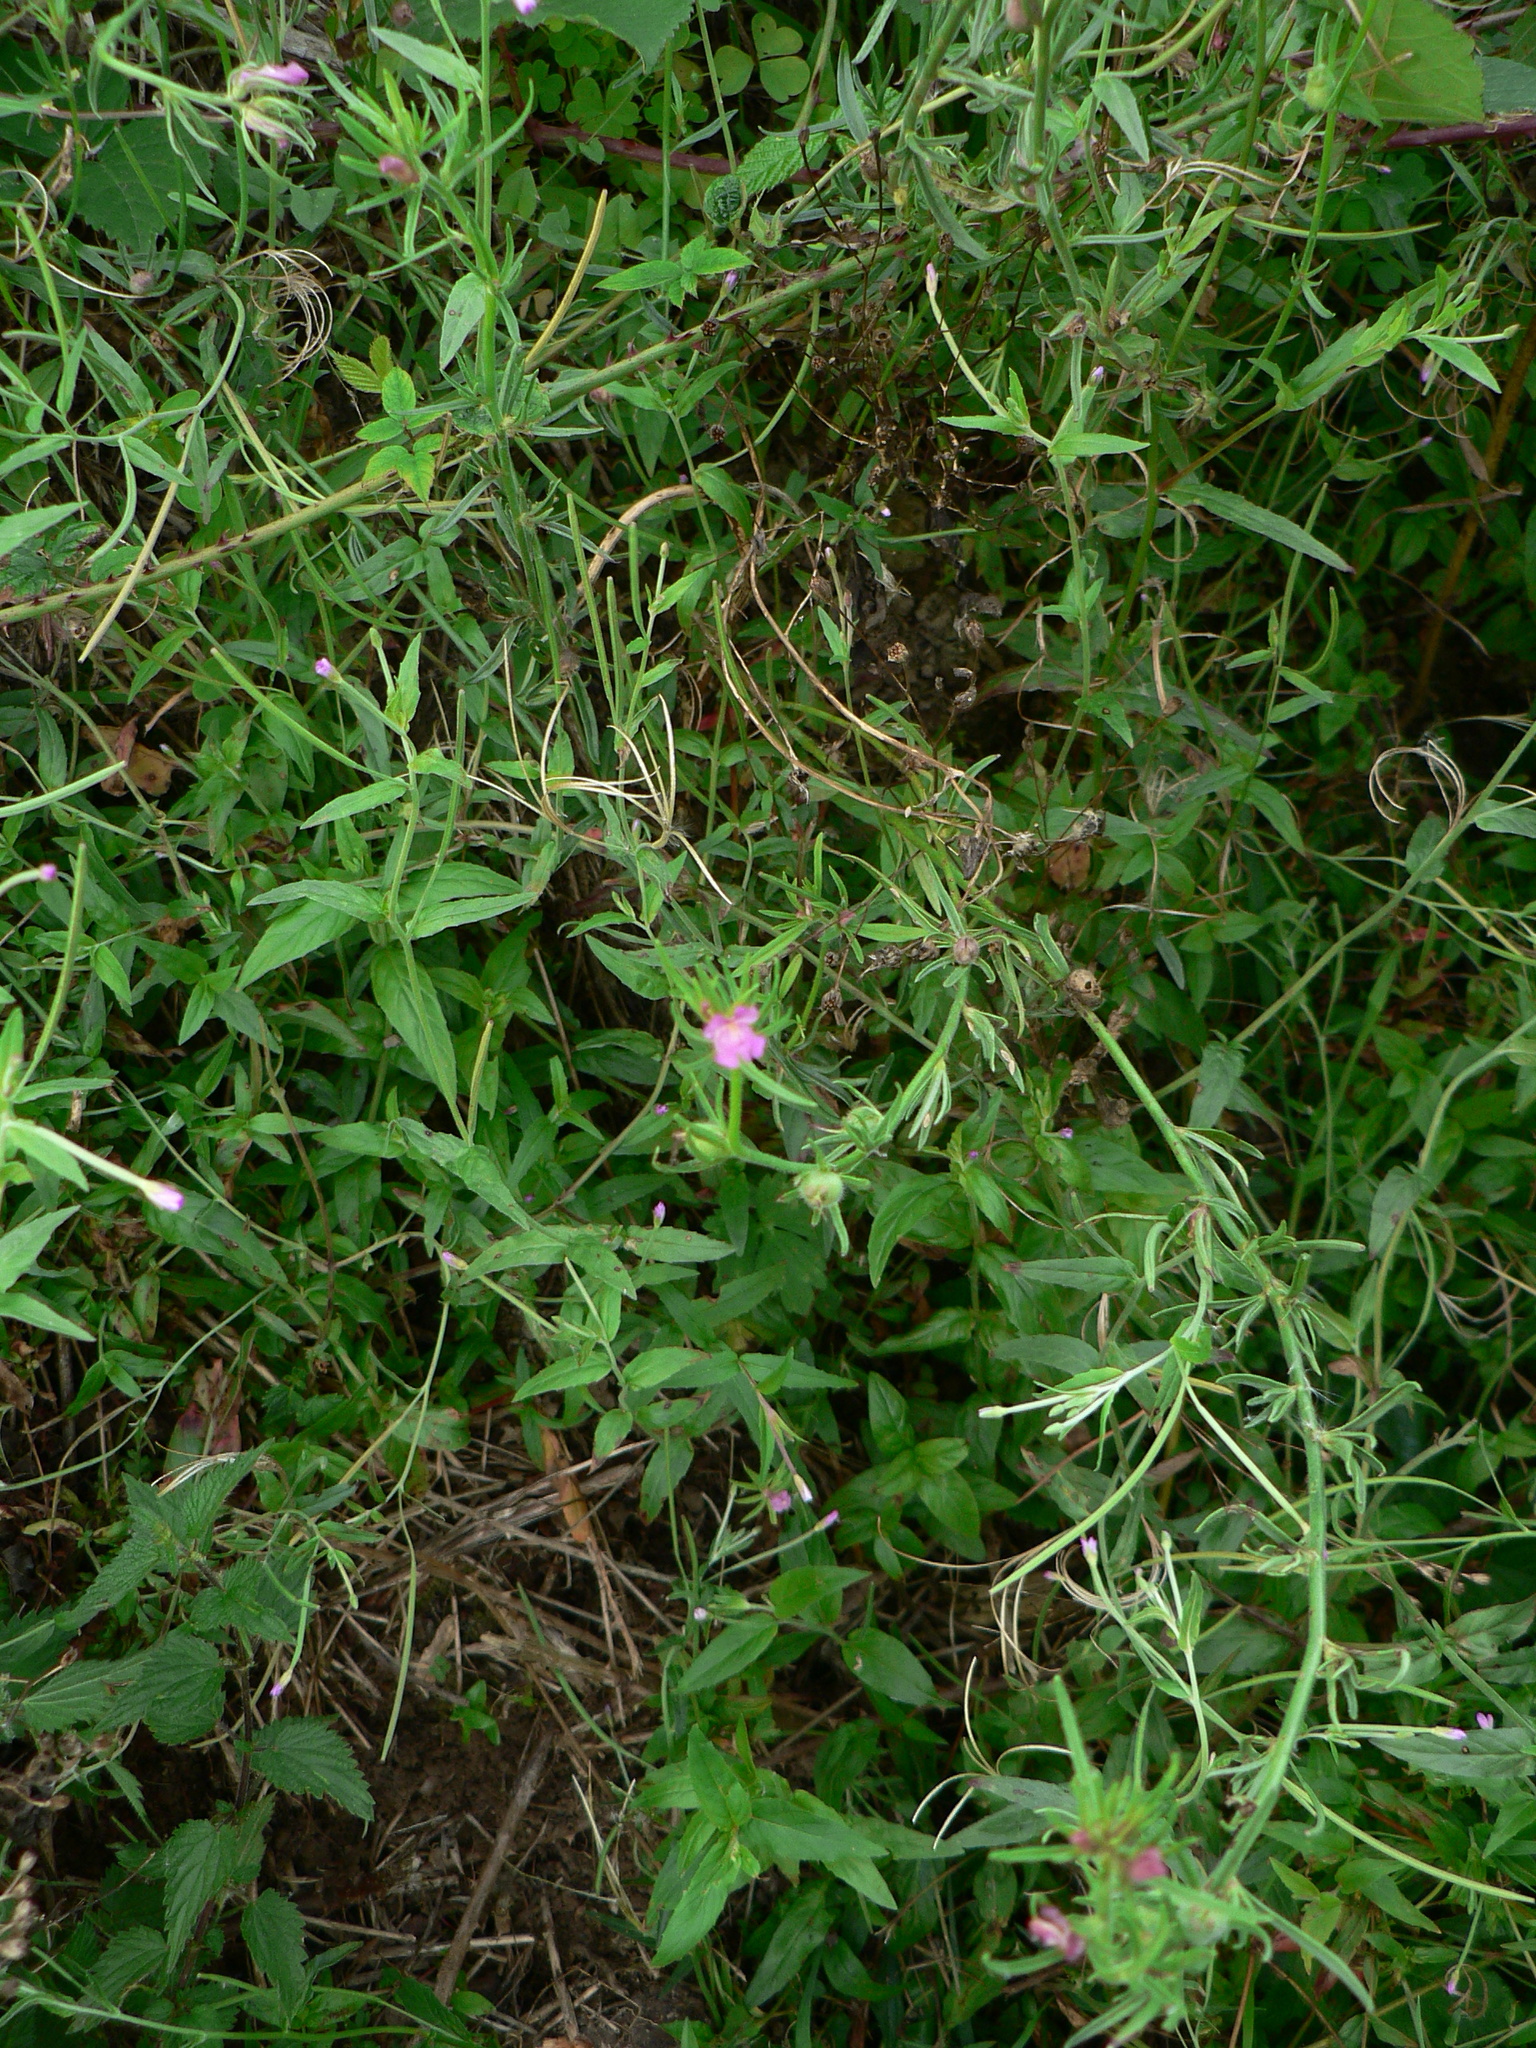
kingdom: Plantae
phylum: Tracheophyta
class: Magnoliopsida
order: Lamiales
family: Plantaginaceae
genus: Misopates
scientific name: Misopates orontium
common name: Weasel's-snout
